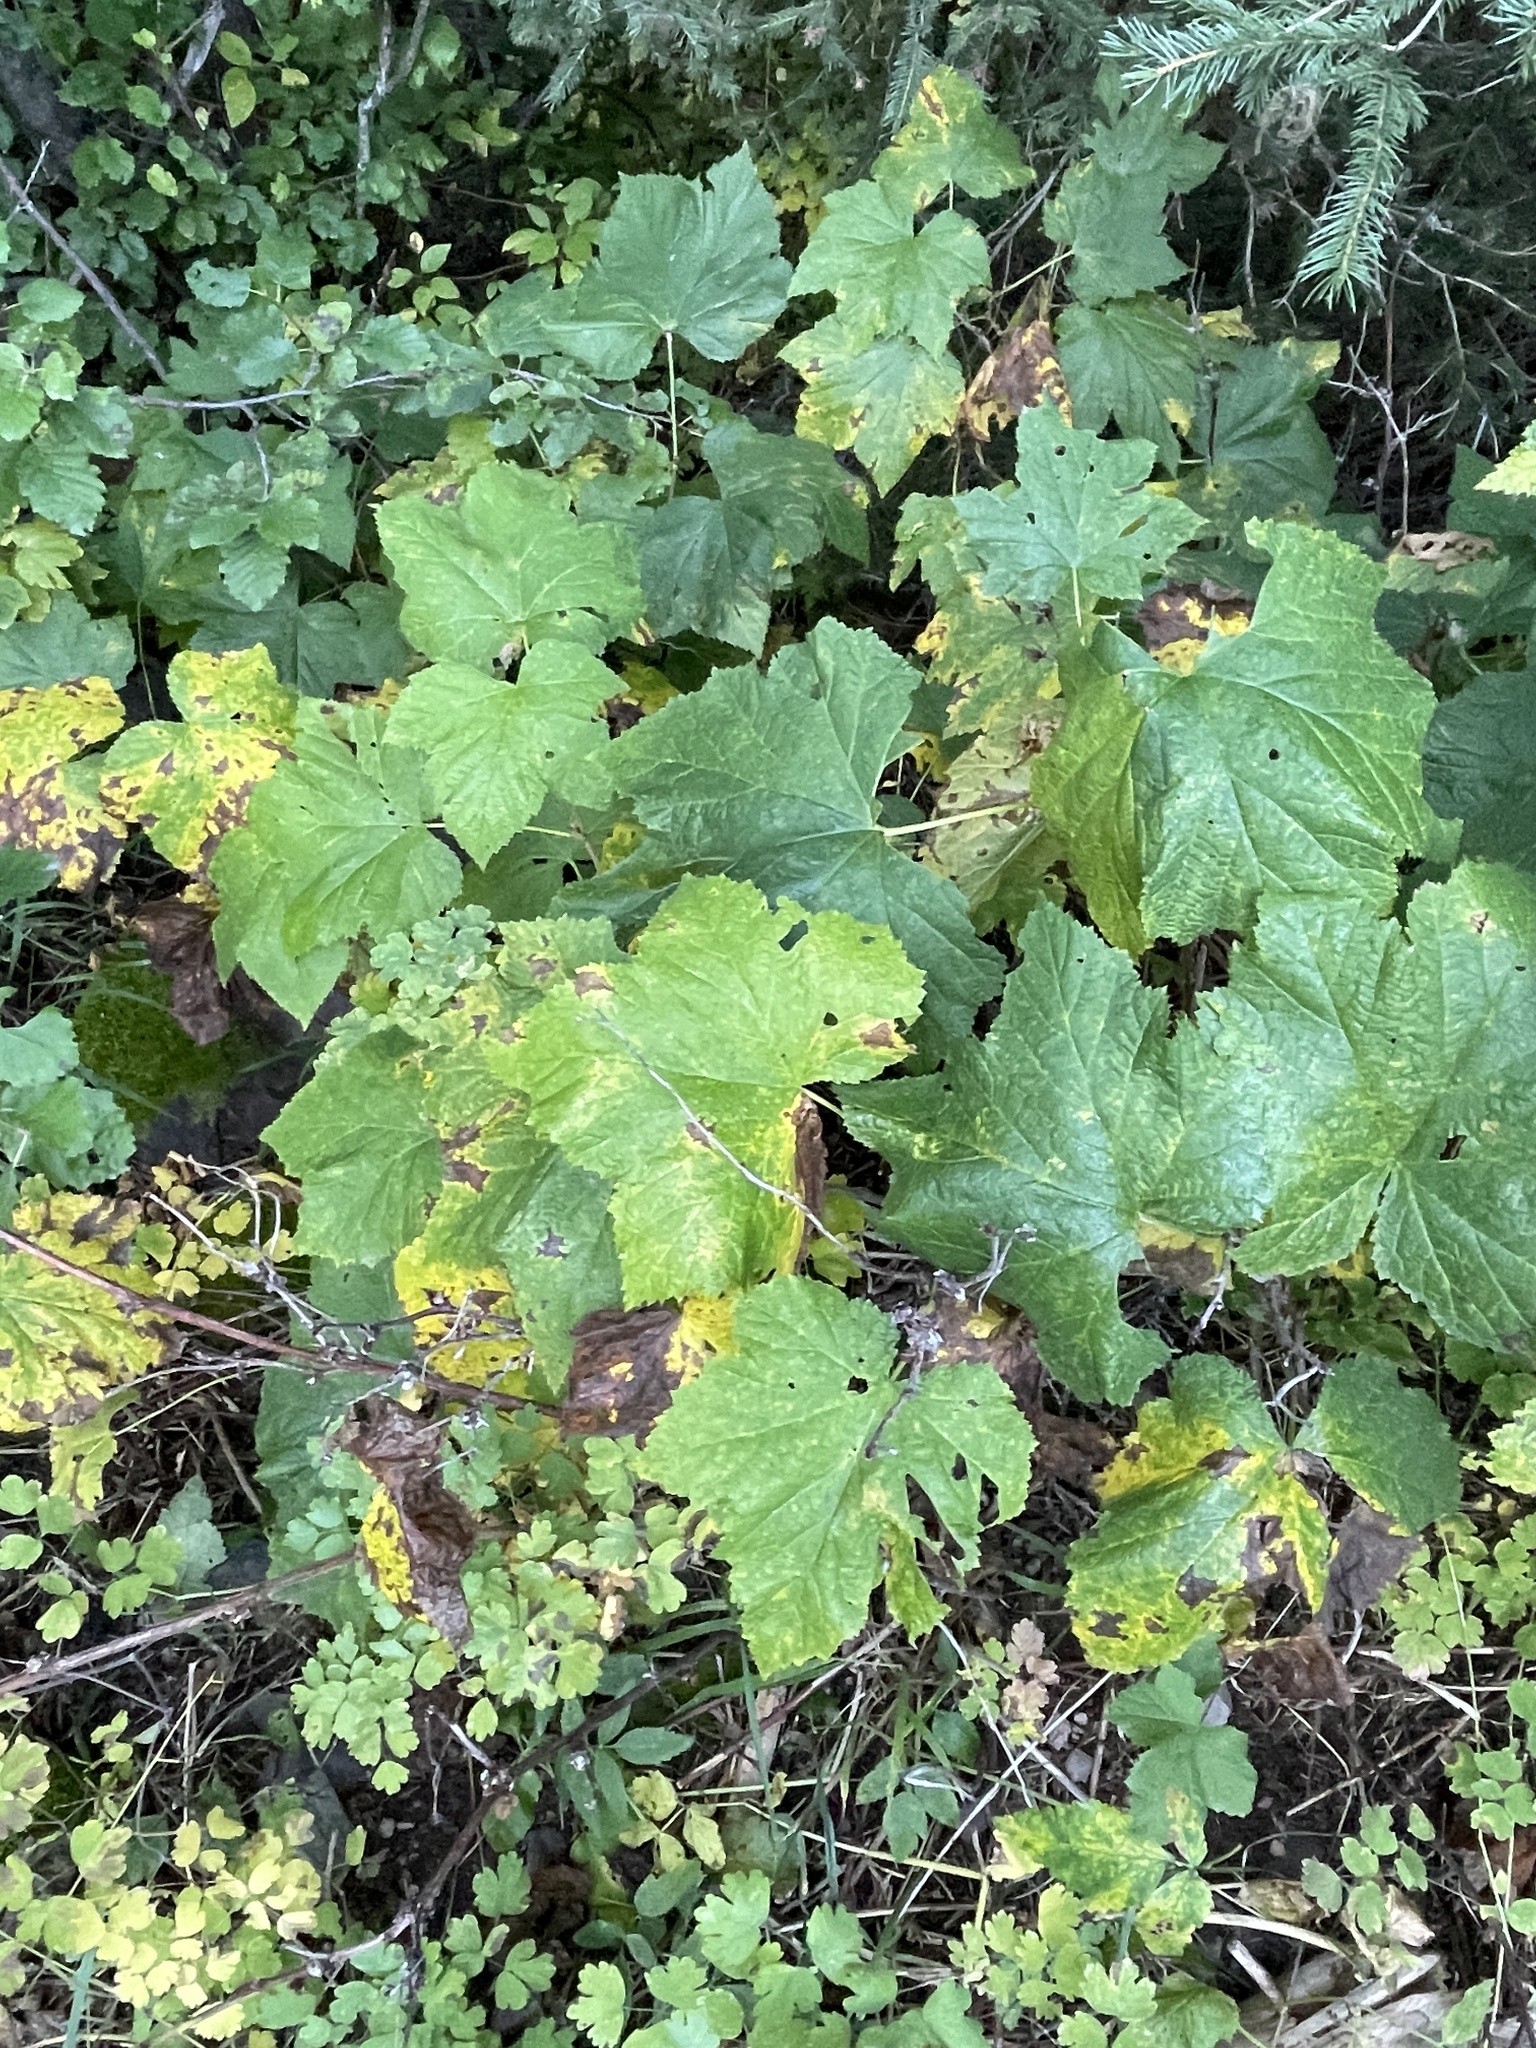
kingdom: Plantae
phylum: Tracheophyta
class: Magnoliopsida
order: Rosales
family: Rosaceae
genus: Rubus
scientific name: Rubus parviflorus
